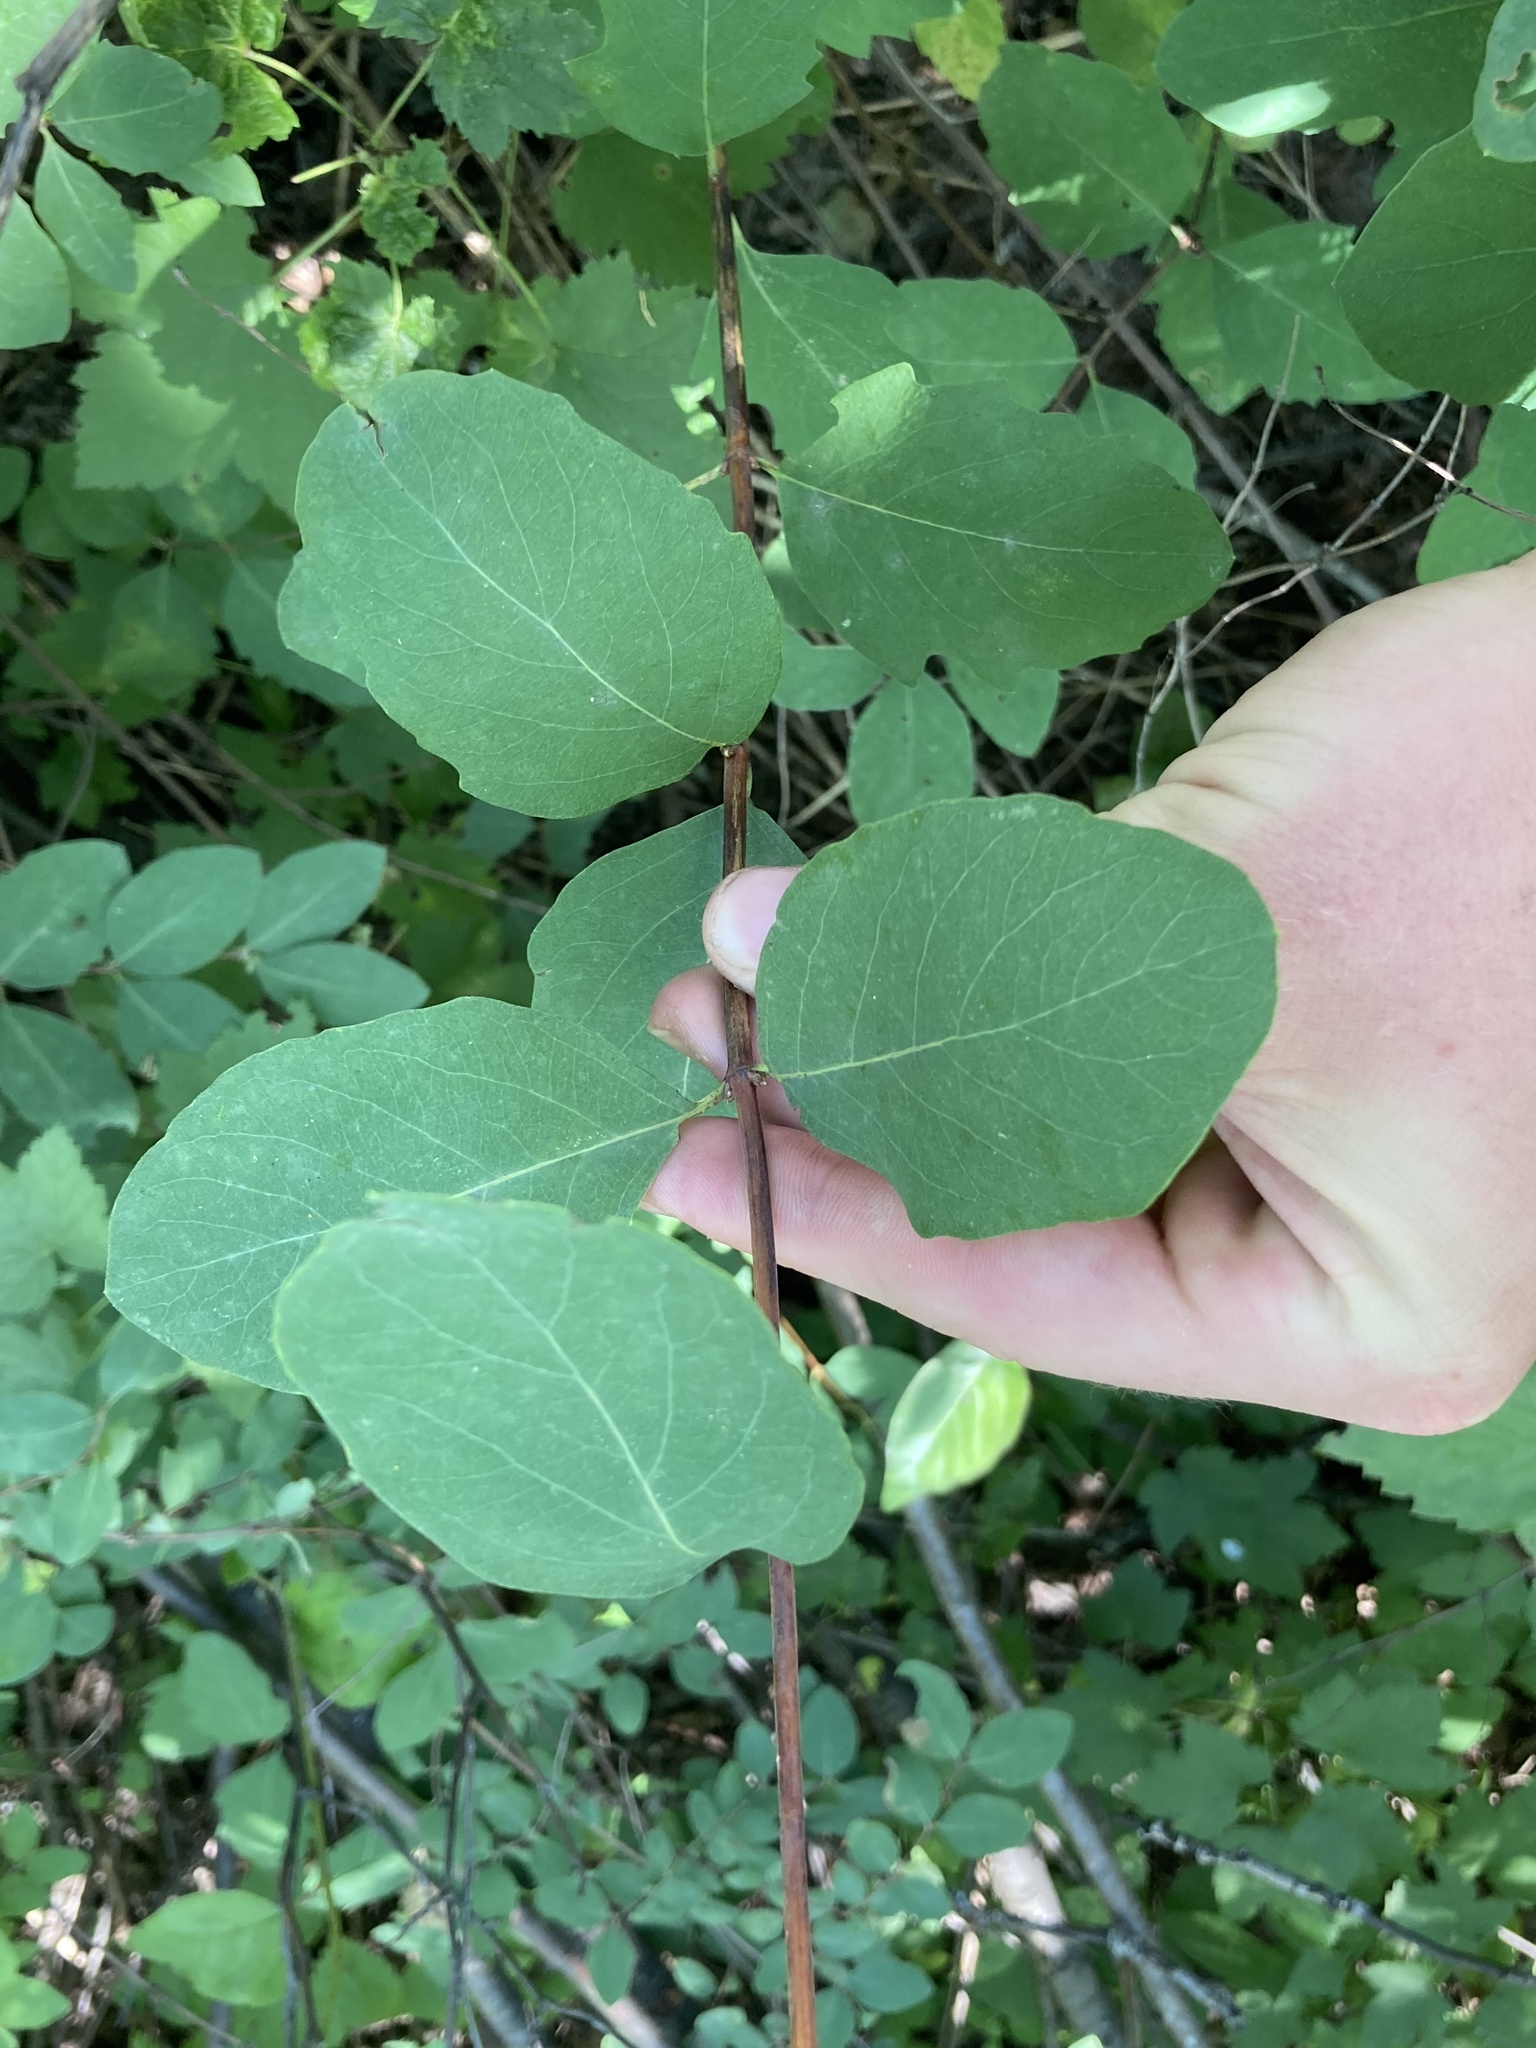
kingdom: Plantae
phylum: Tracheophyta
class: Magnoliopsida
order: Dipsacales
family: Caprifoliaceae
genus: Symphoricarpos
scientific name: Symphoricarpos occidentalis
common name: Wolfberry
